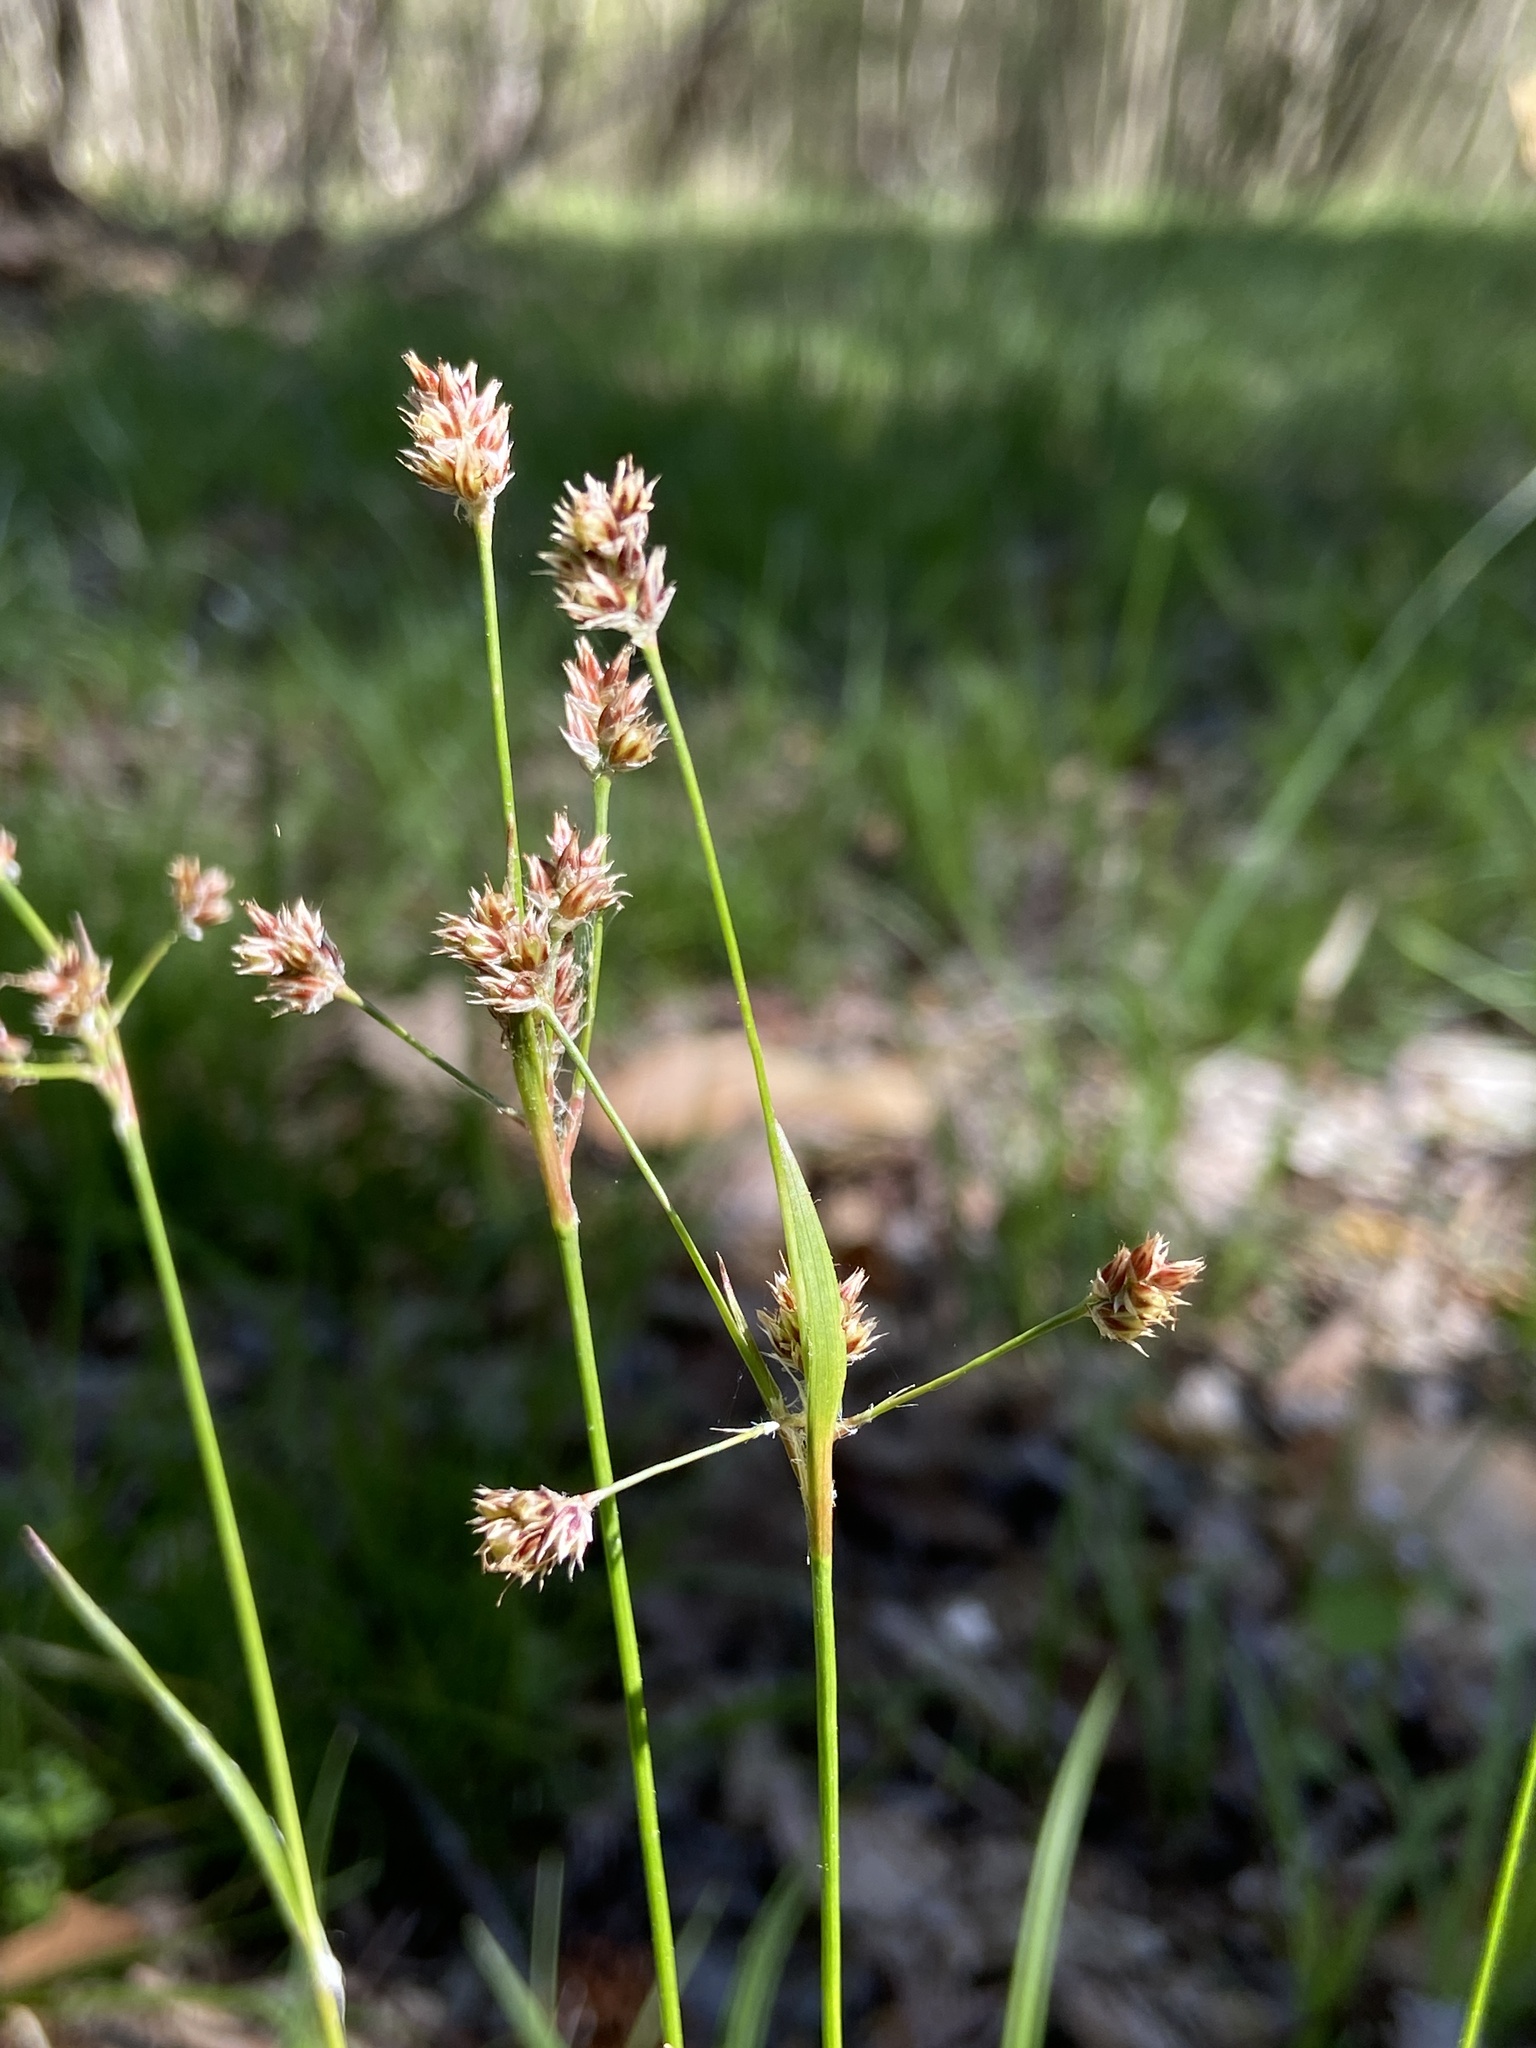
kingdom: Plantae
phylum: Tracheophyta
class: Liliopsida
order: Poales
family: Juncaceae
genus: Luzula
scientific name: Luzula echinata
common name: Hedgehog woodrush
